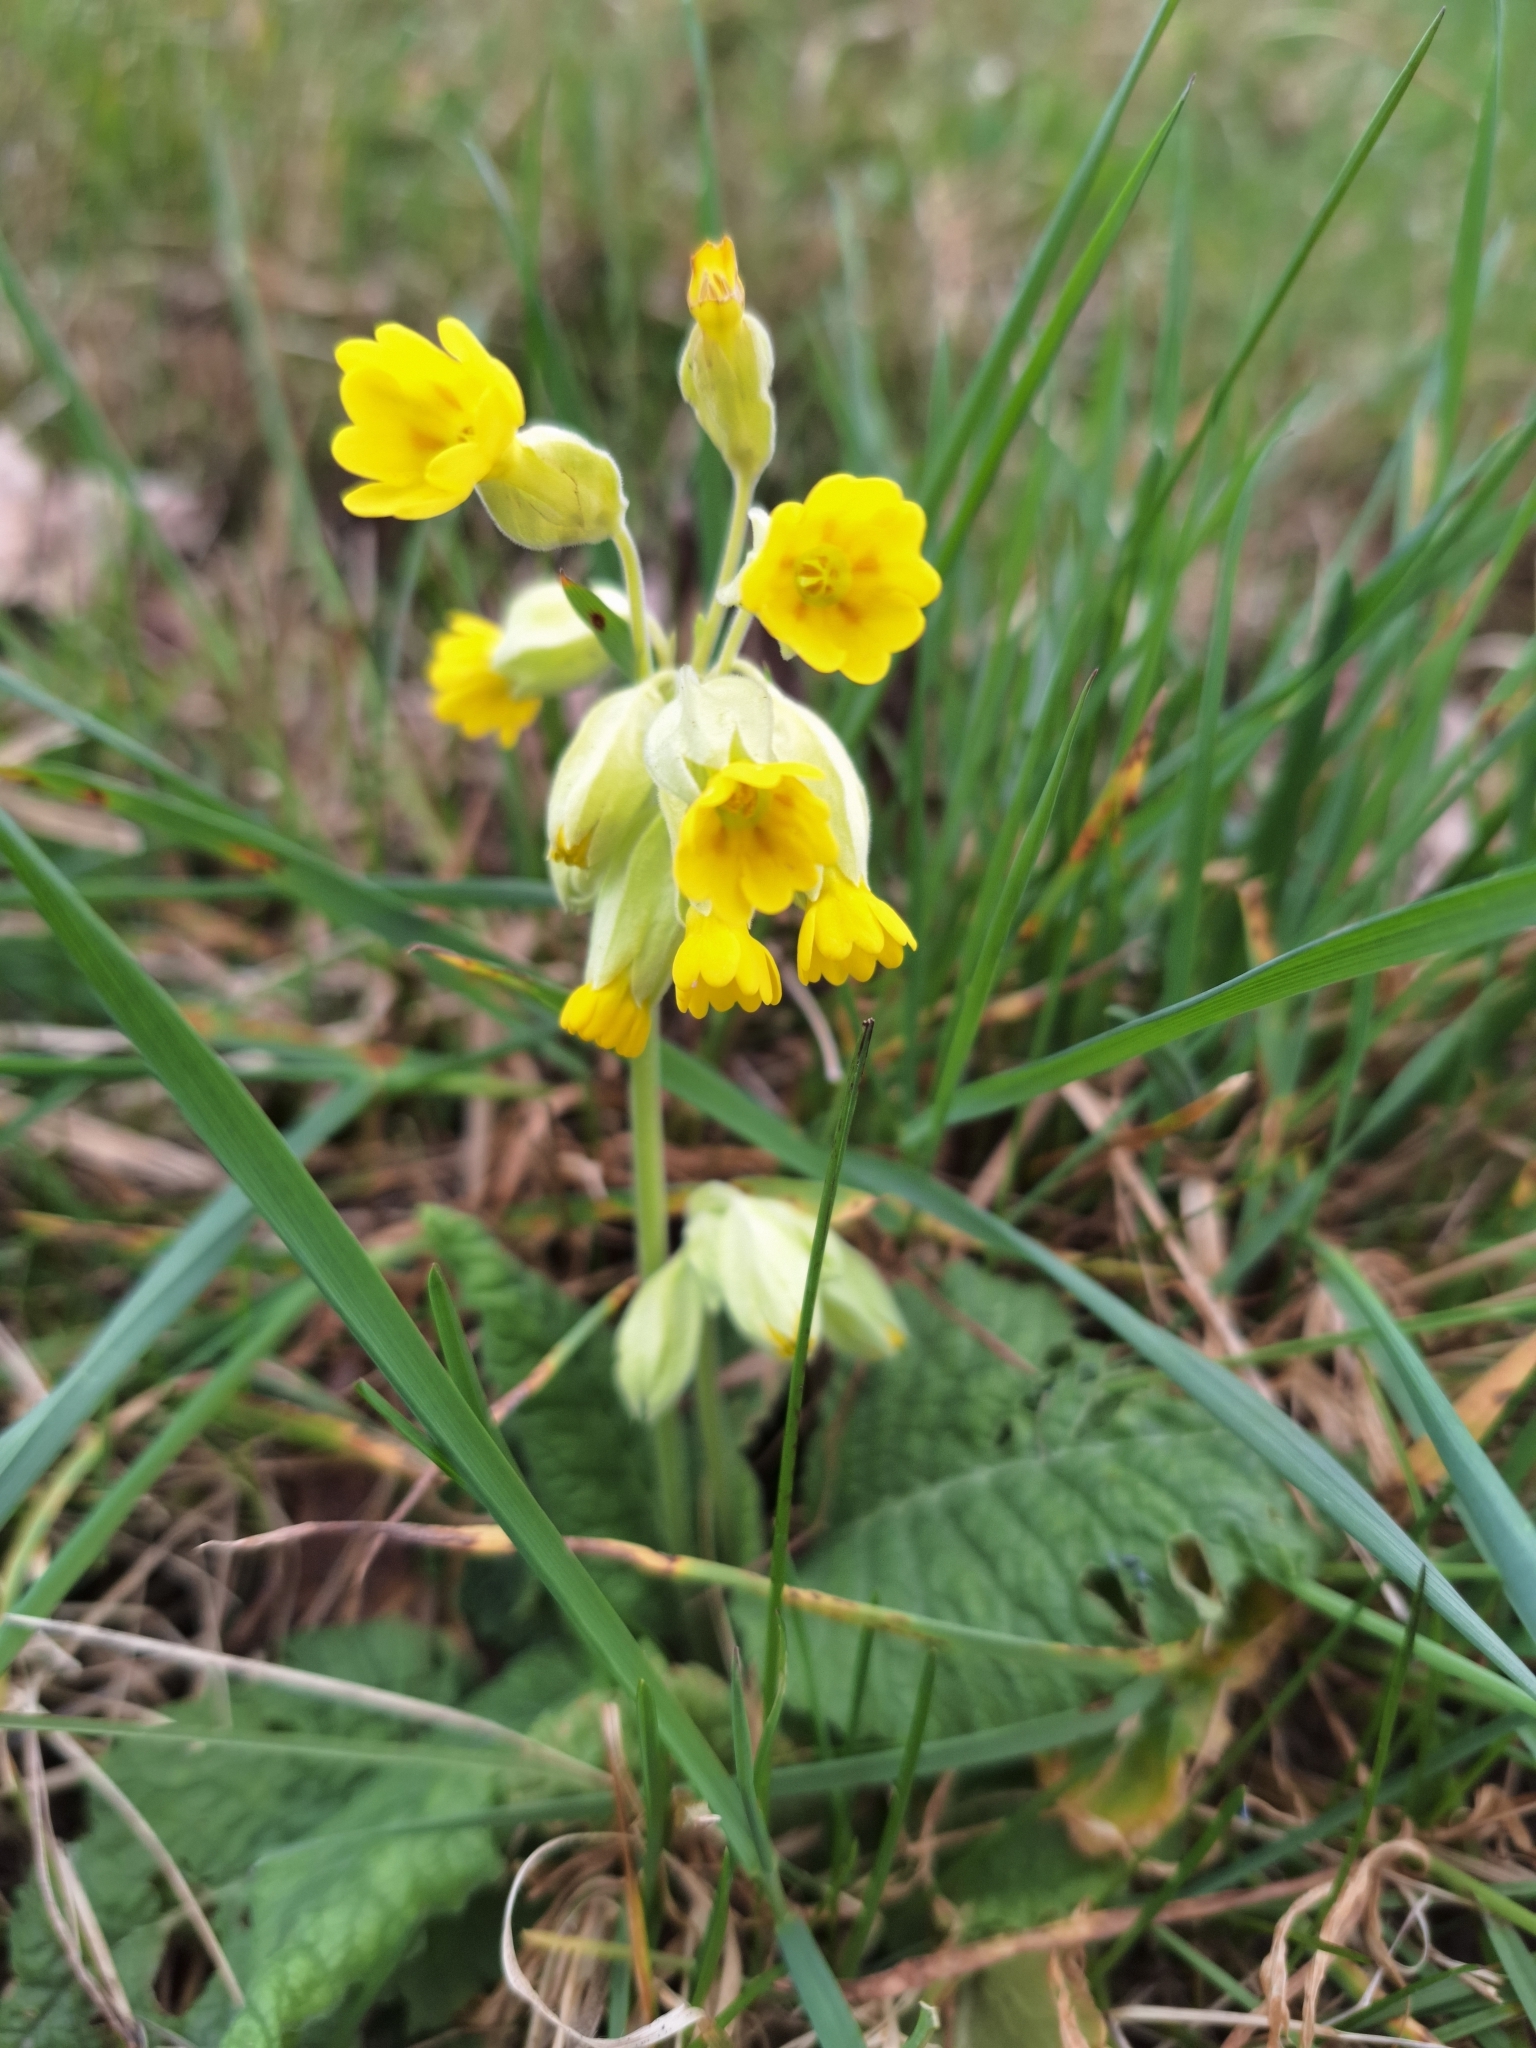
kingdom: Plantae
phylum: Tracheophyta
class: Magnoliopsida
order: Ericales
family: Primulaceae
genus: Primula
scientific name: Primula veris
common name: Cowslip
